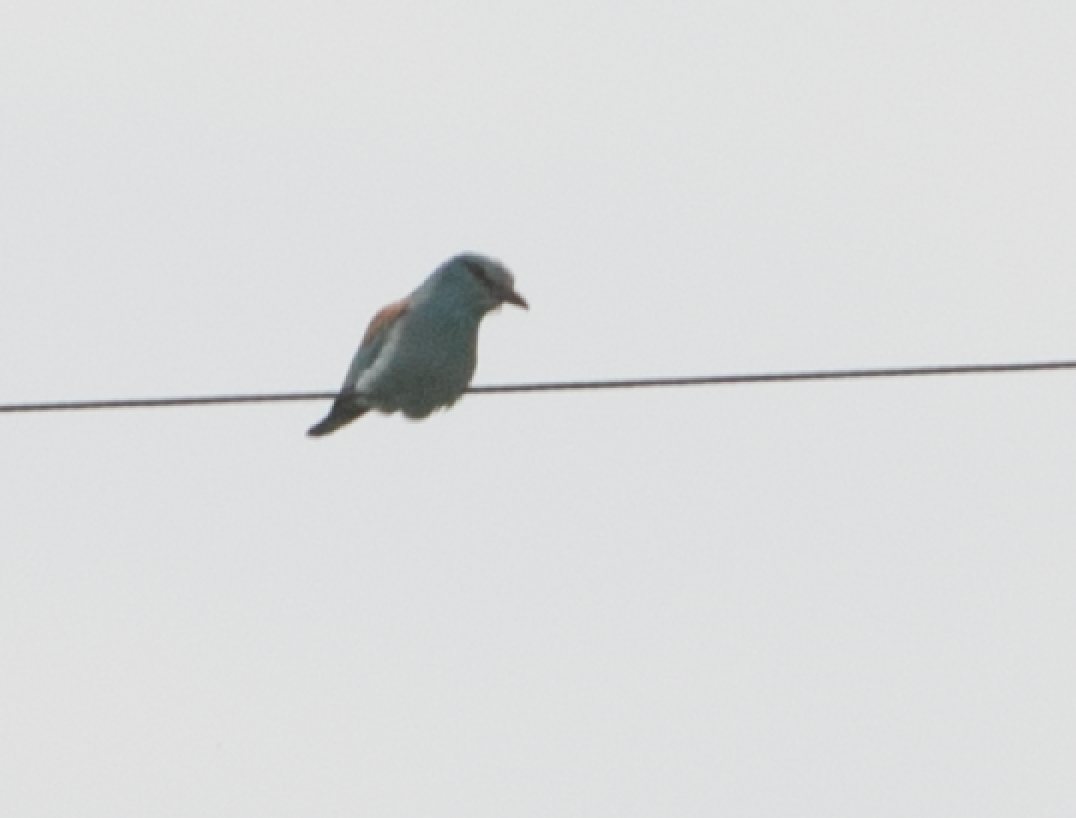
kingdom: Animalia
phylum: Chordata
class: Aves
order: Coraciiformes
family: Coraciidae
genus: Coracias
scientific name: Coracias garrulus
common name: European roller
